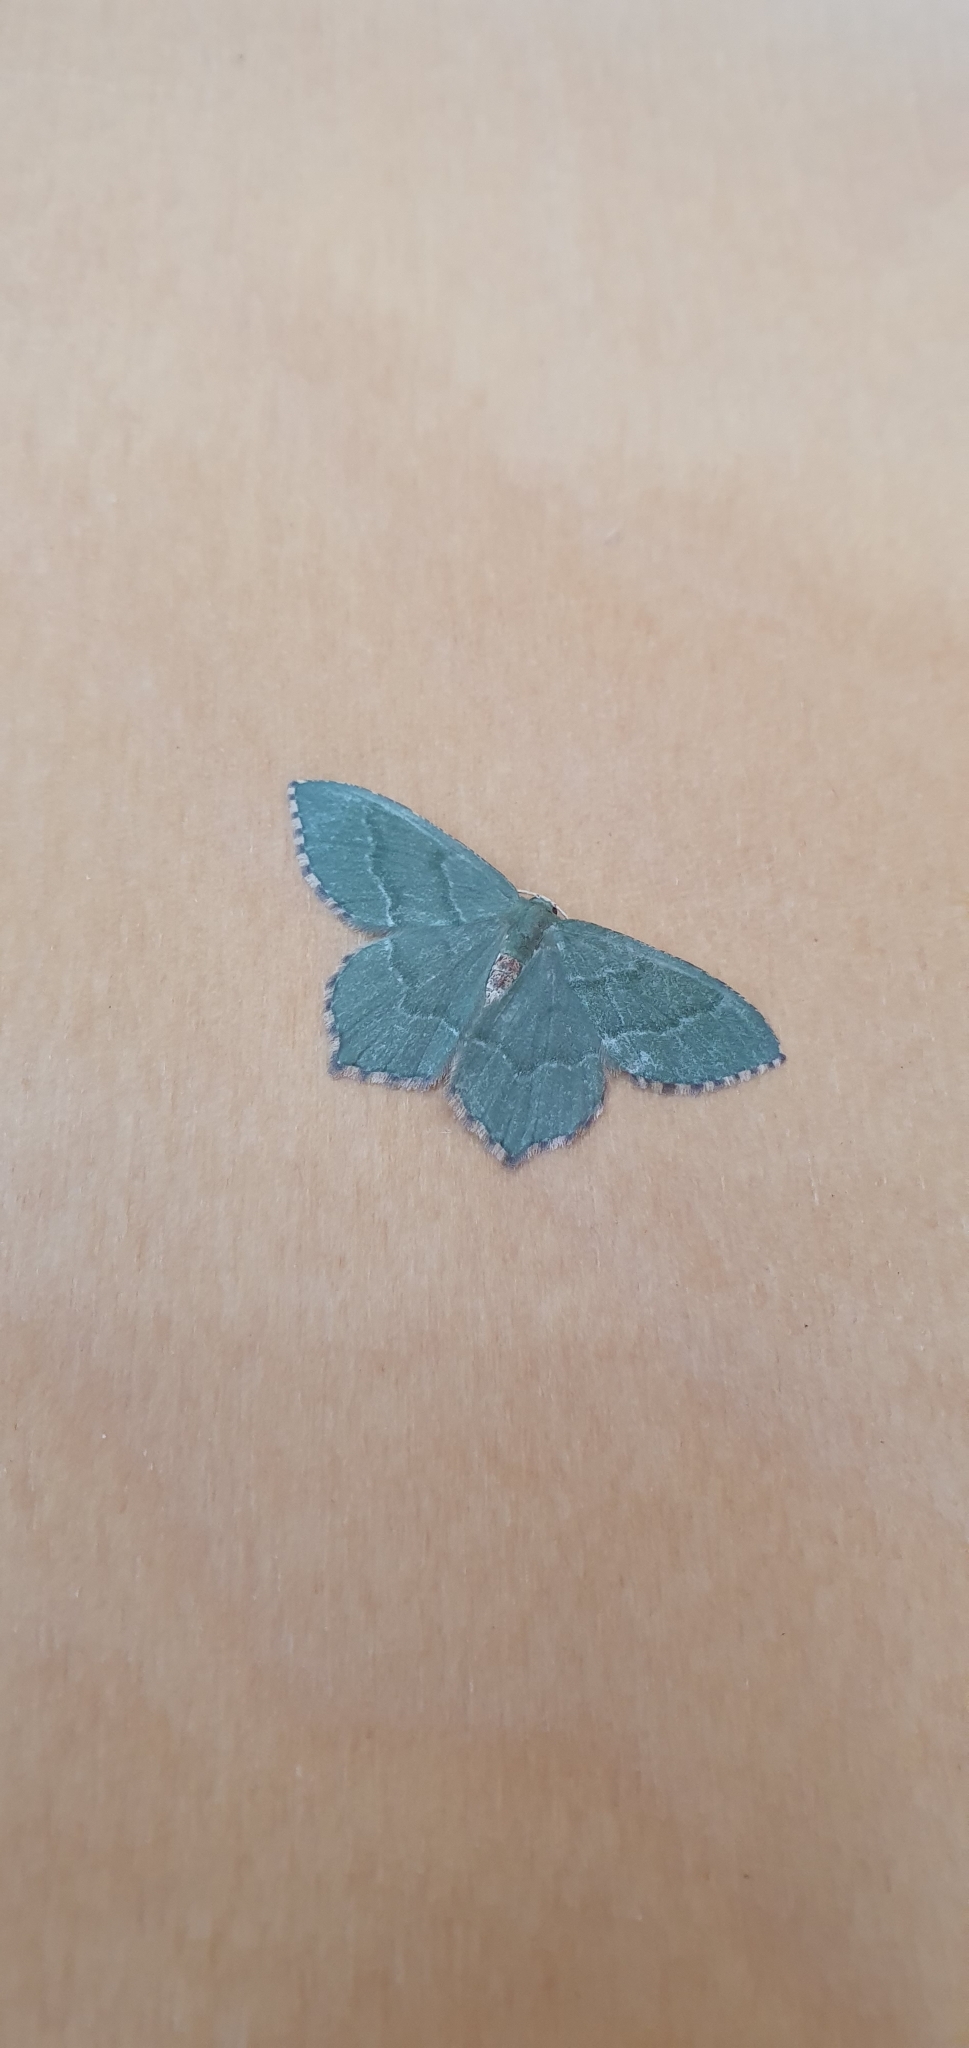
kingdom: Animalia
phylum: Arthropoda
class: Insecta
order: Lepidoptera
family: Geometridae
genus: Hemithea
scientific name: Hemithea aestivaria
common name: Common emerald
